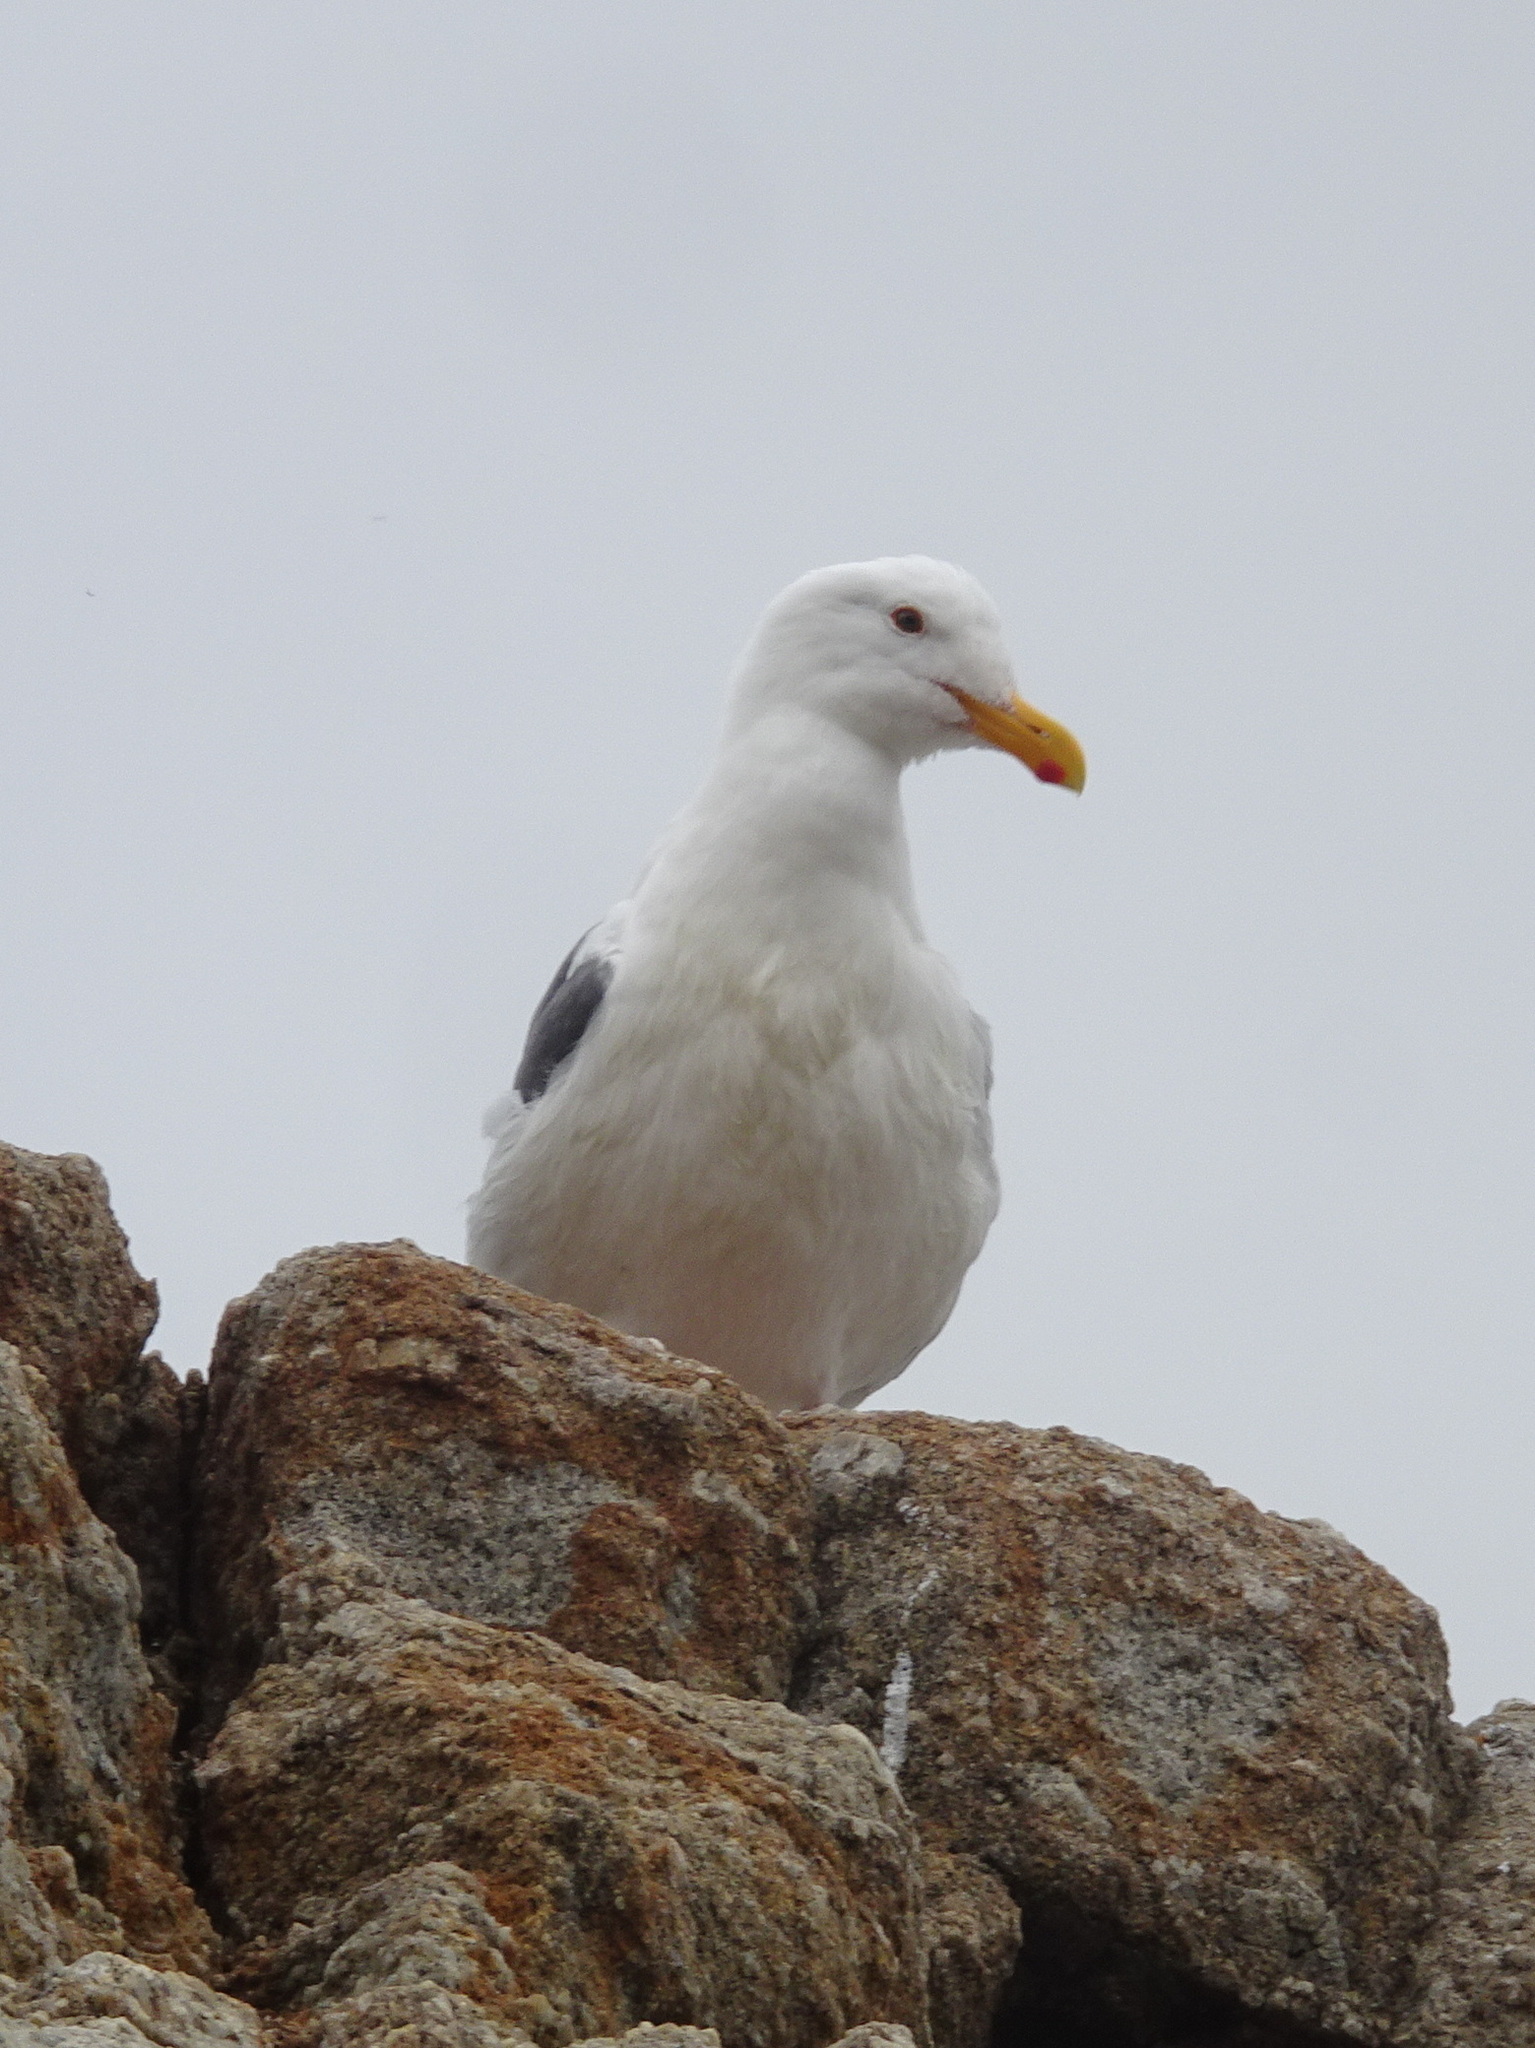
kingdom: Animalia
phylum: Chordata
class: Aves
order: Charadriiformes
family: Laridae
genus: Larus
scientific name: Larus occidentalis
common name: Western gull
